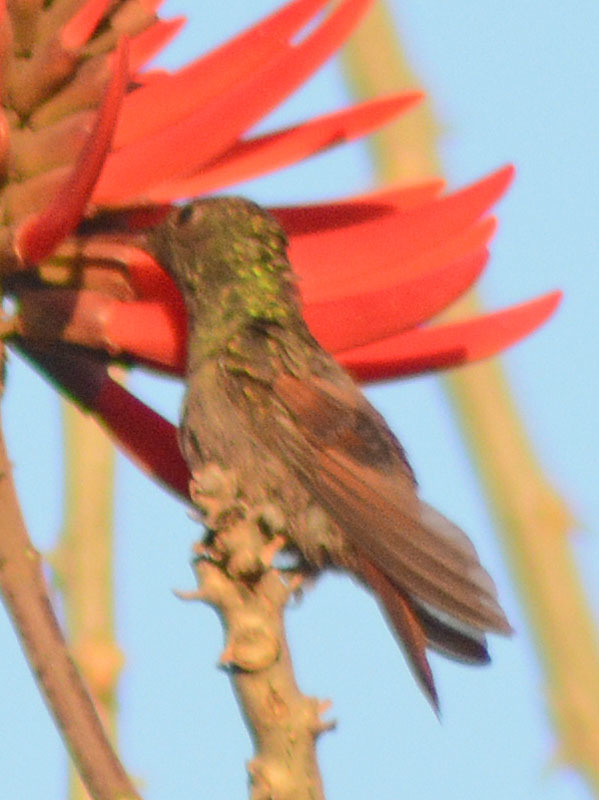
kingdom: Animalia
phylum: Chordata
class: Aves
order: Apodiformes
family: Trochilidae
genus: Saucerottia
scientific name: Saucerottia beryllina
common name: Berylline hummingbird
